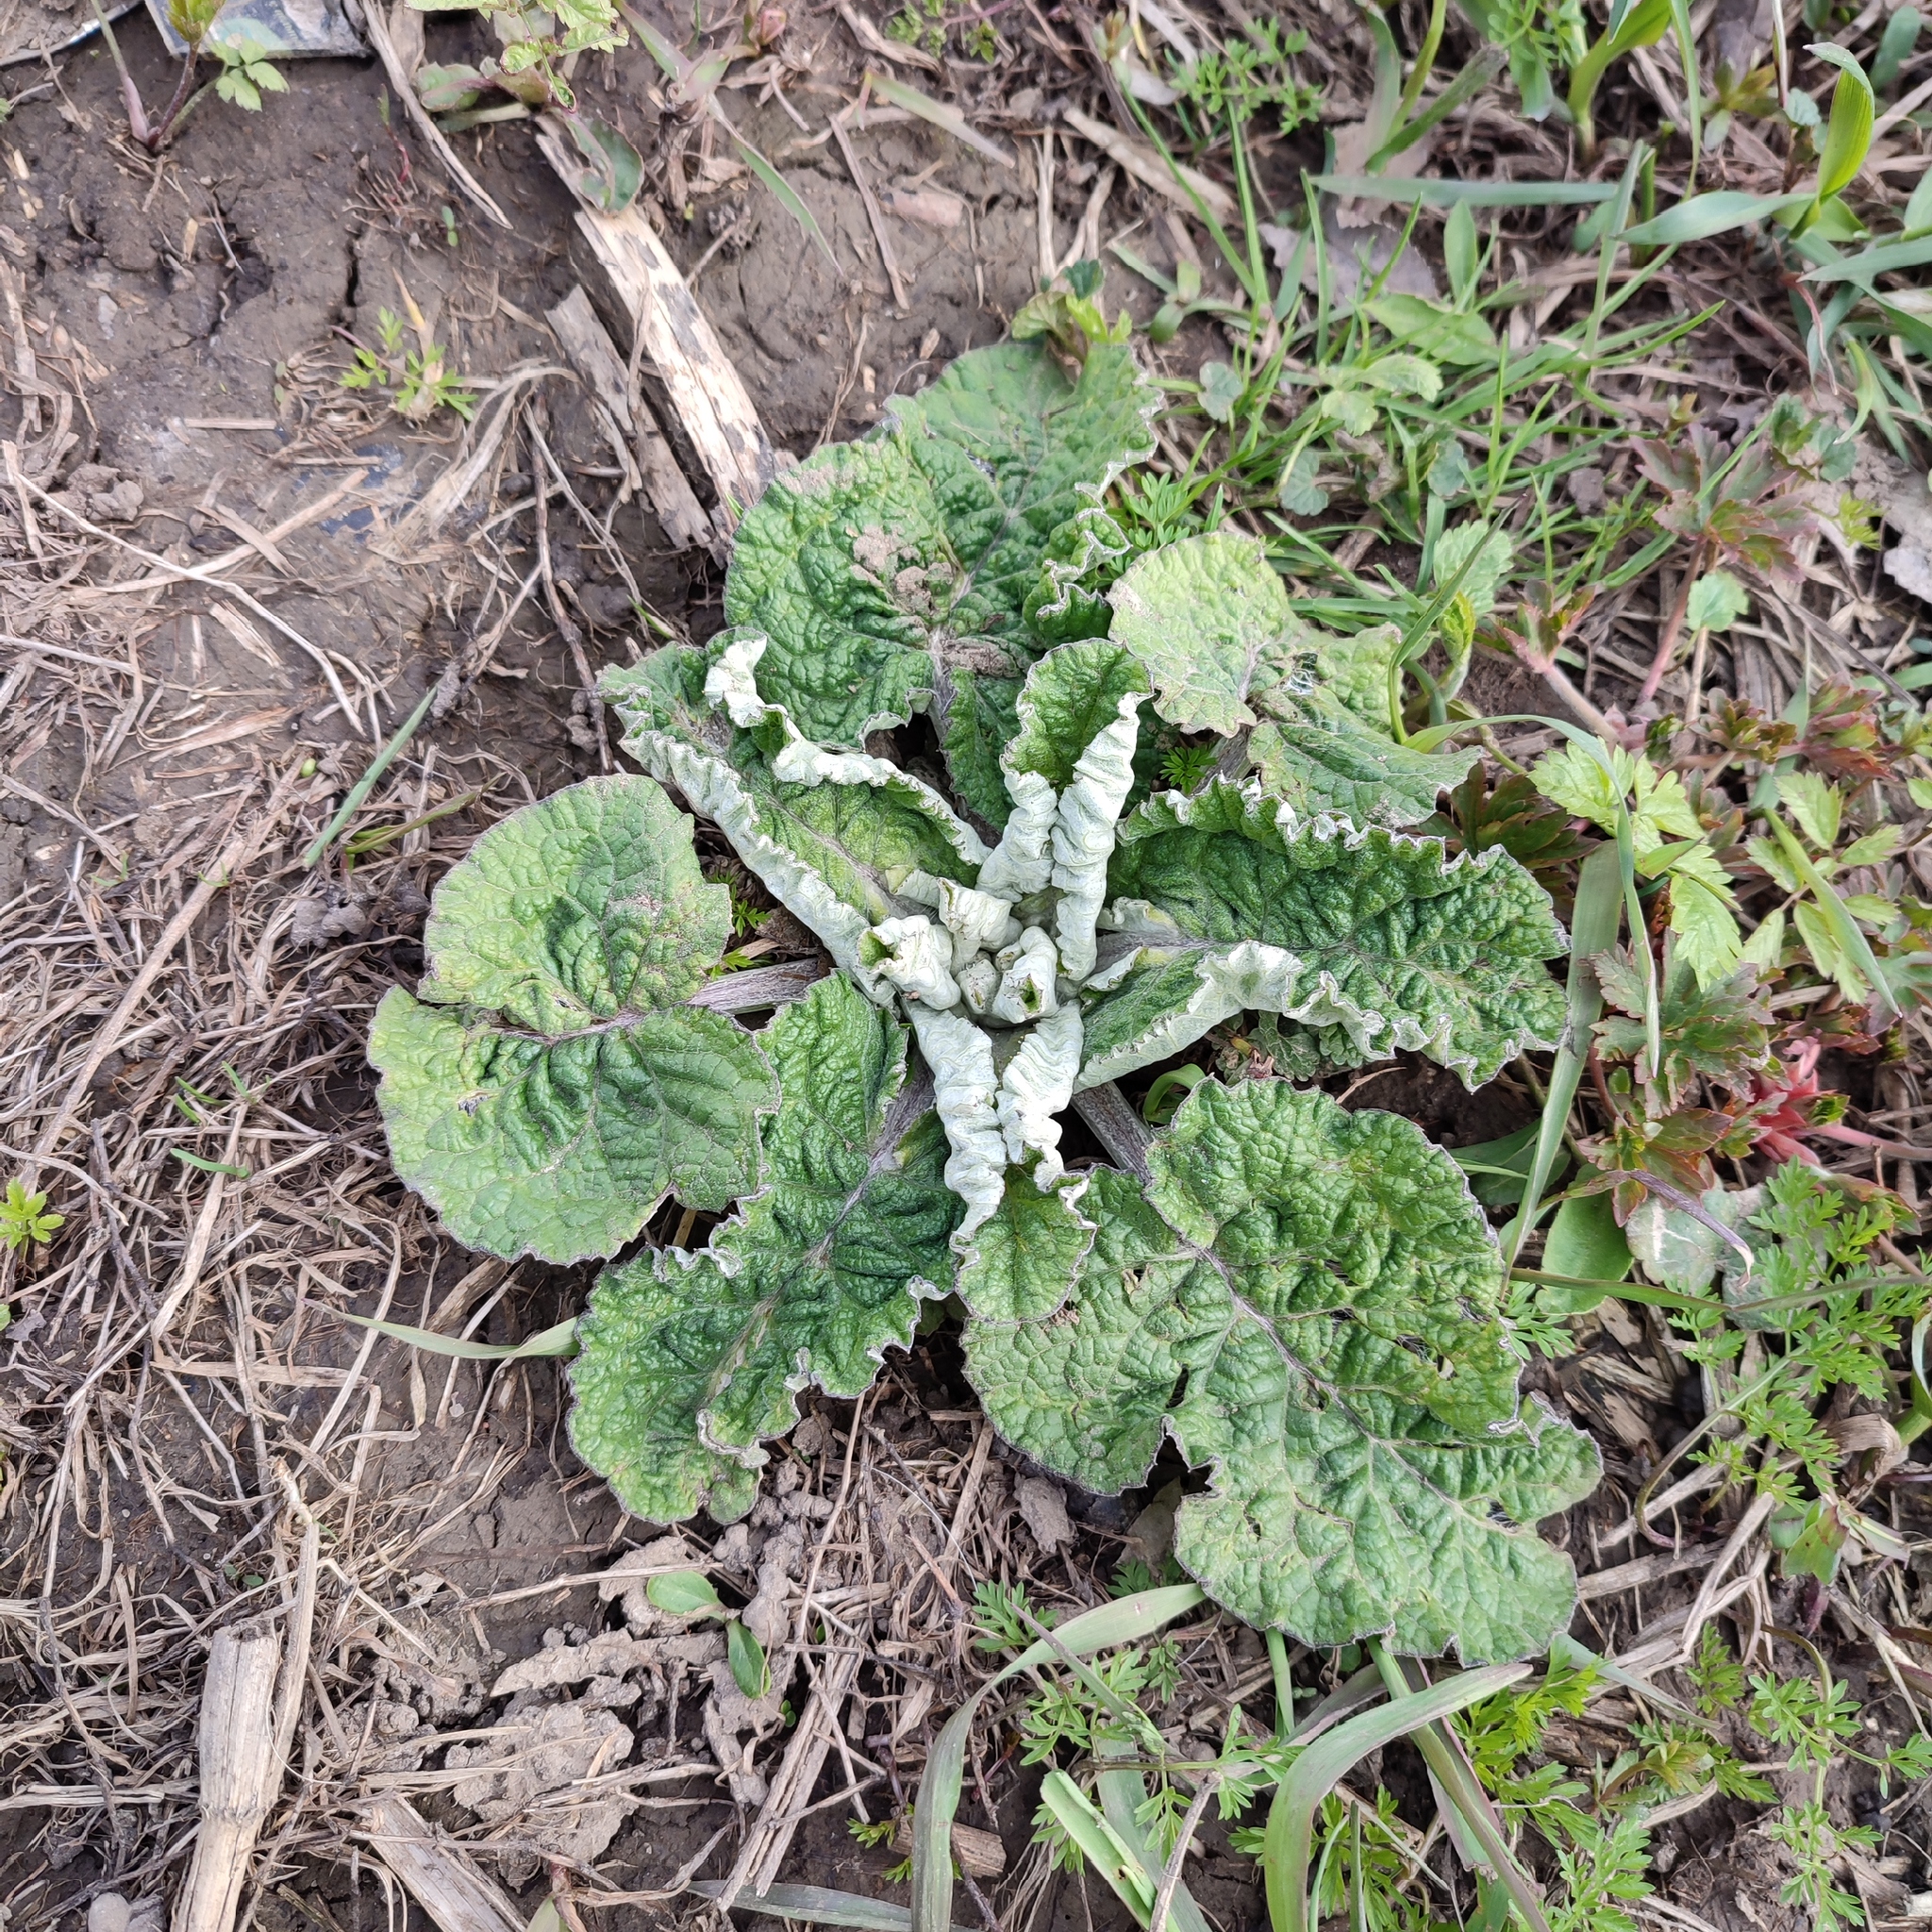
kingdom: Plantae
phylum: Tracheophyta
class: Magnoliopsida
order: Asterales
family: Asteraceae
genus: Arctium
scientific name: Arctium tomentosum
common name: Woolly burdock
